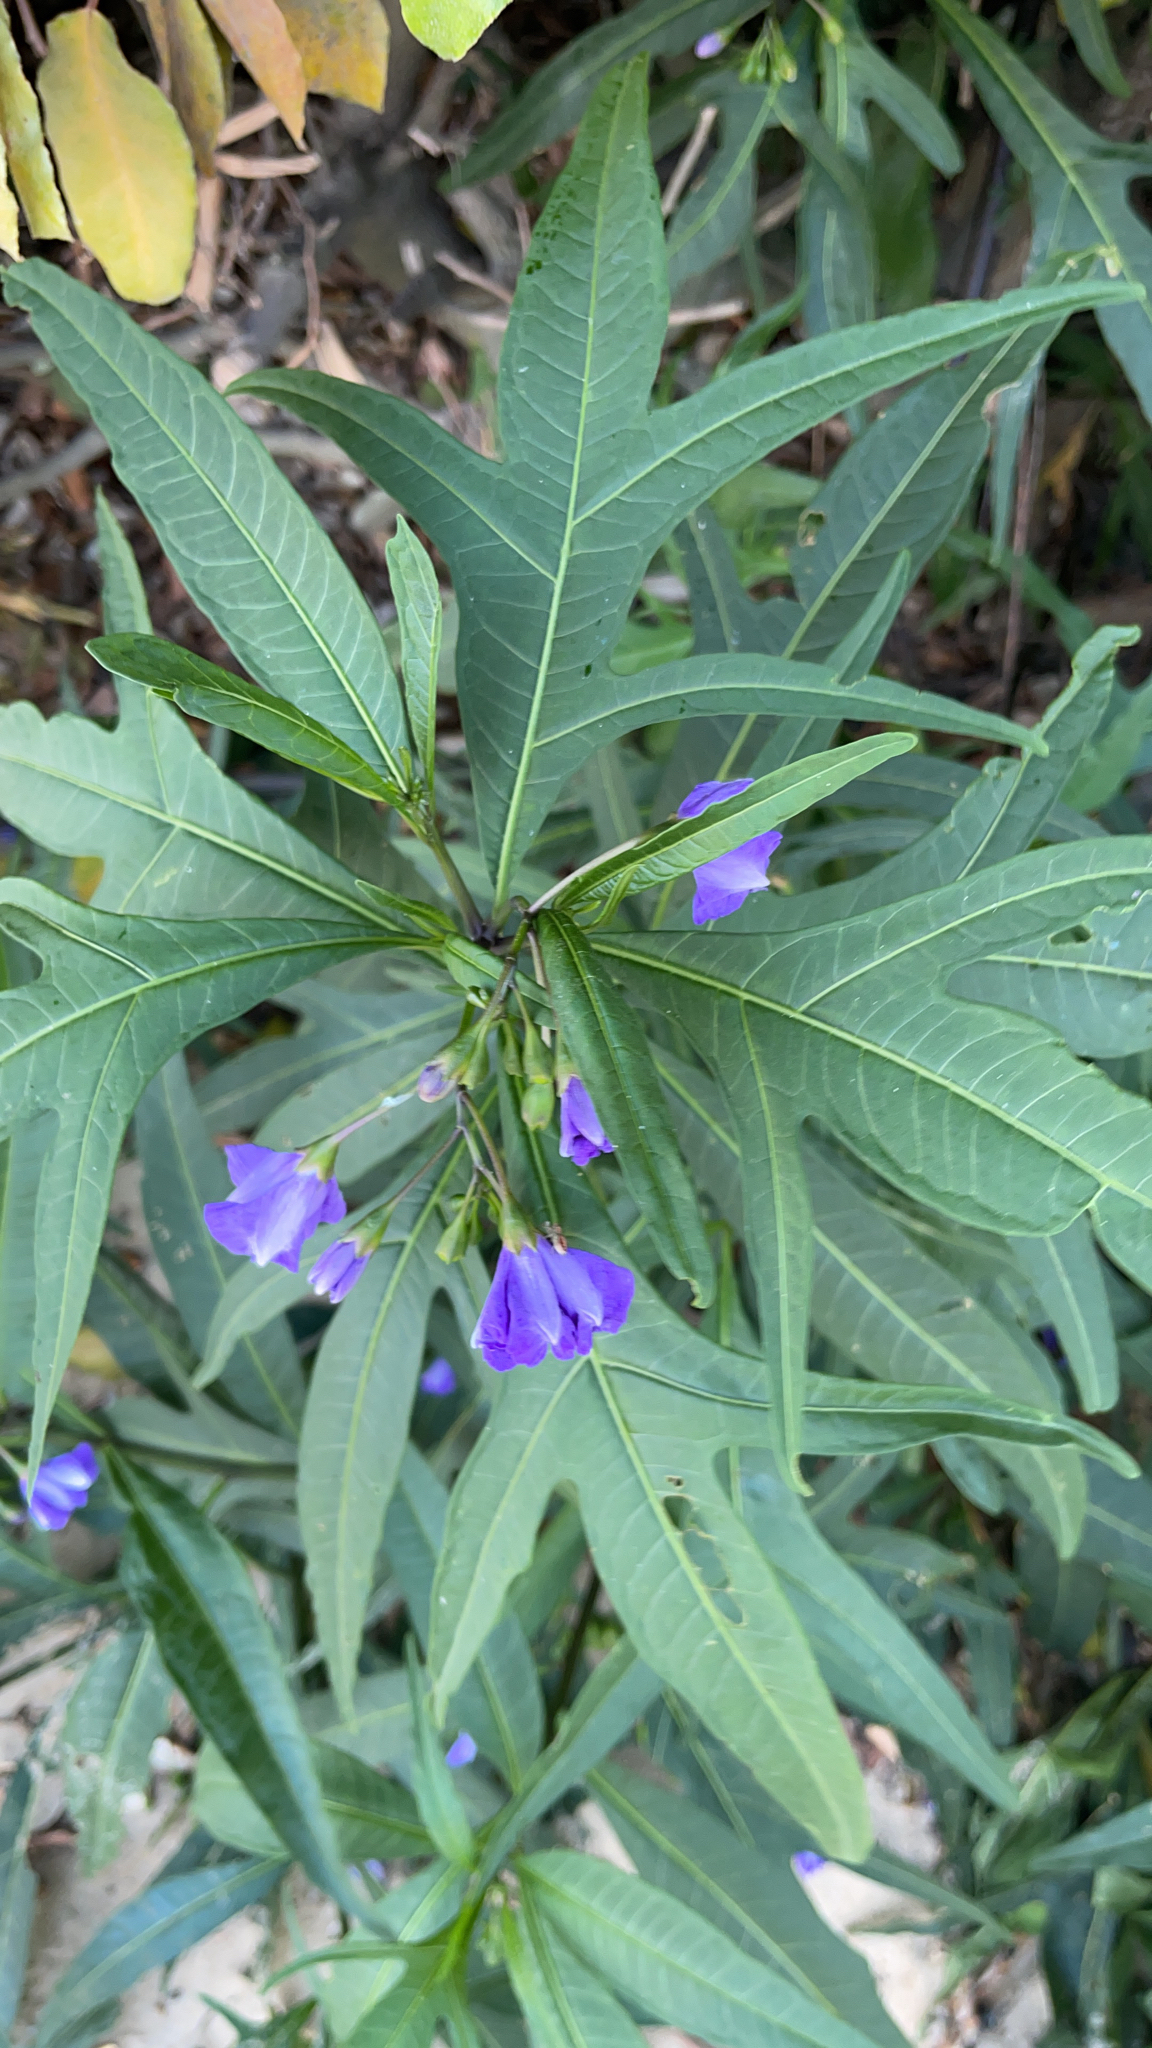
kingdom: Plantae
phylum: Tracheophyta
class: Magnoliopsida
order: Solanales
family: Solanaceae
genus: Solanum
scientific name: Solanum laciniatum
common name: Kangaroo-apple
